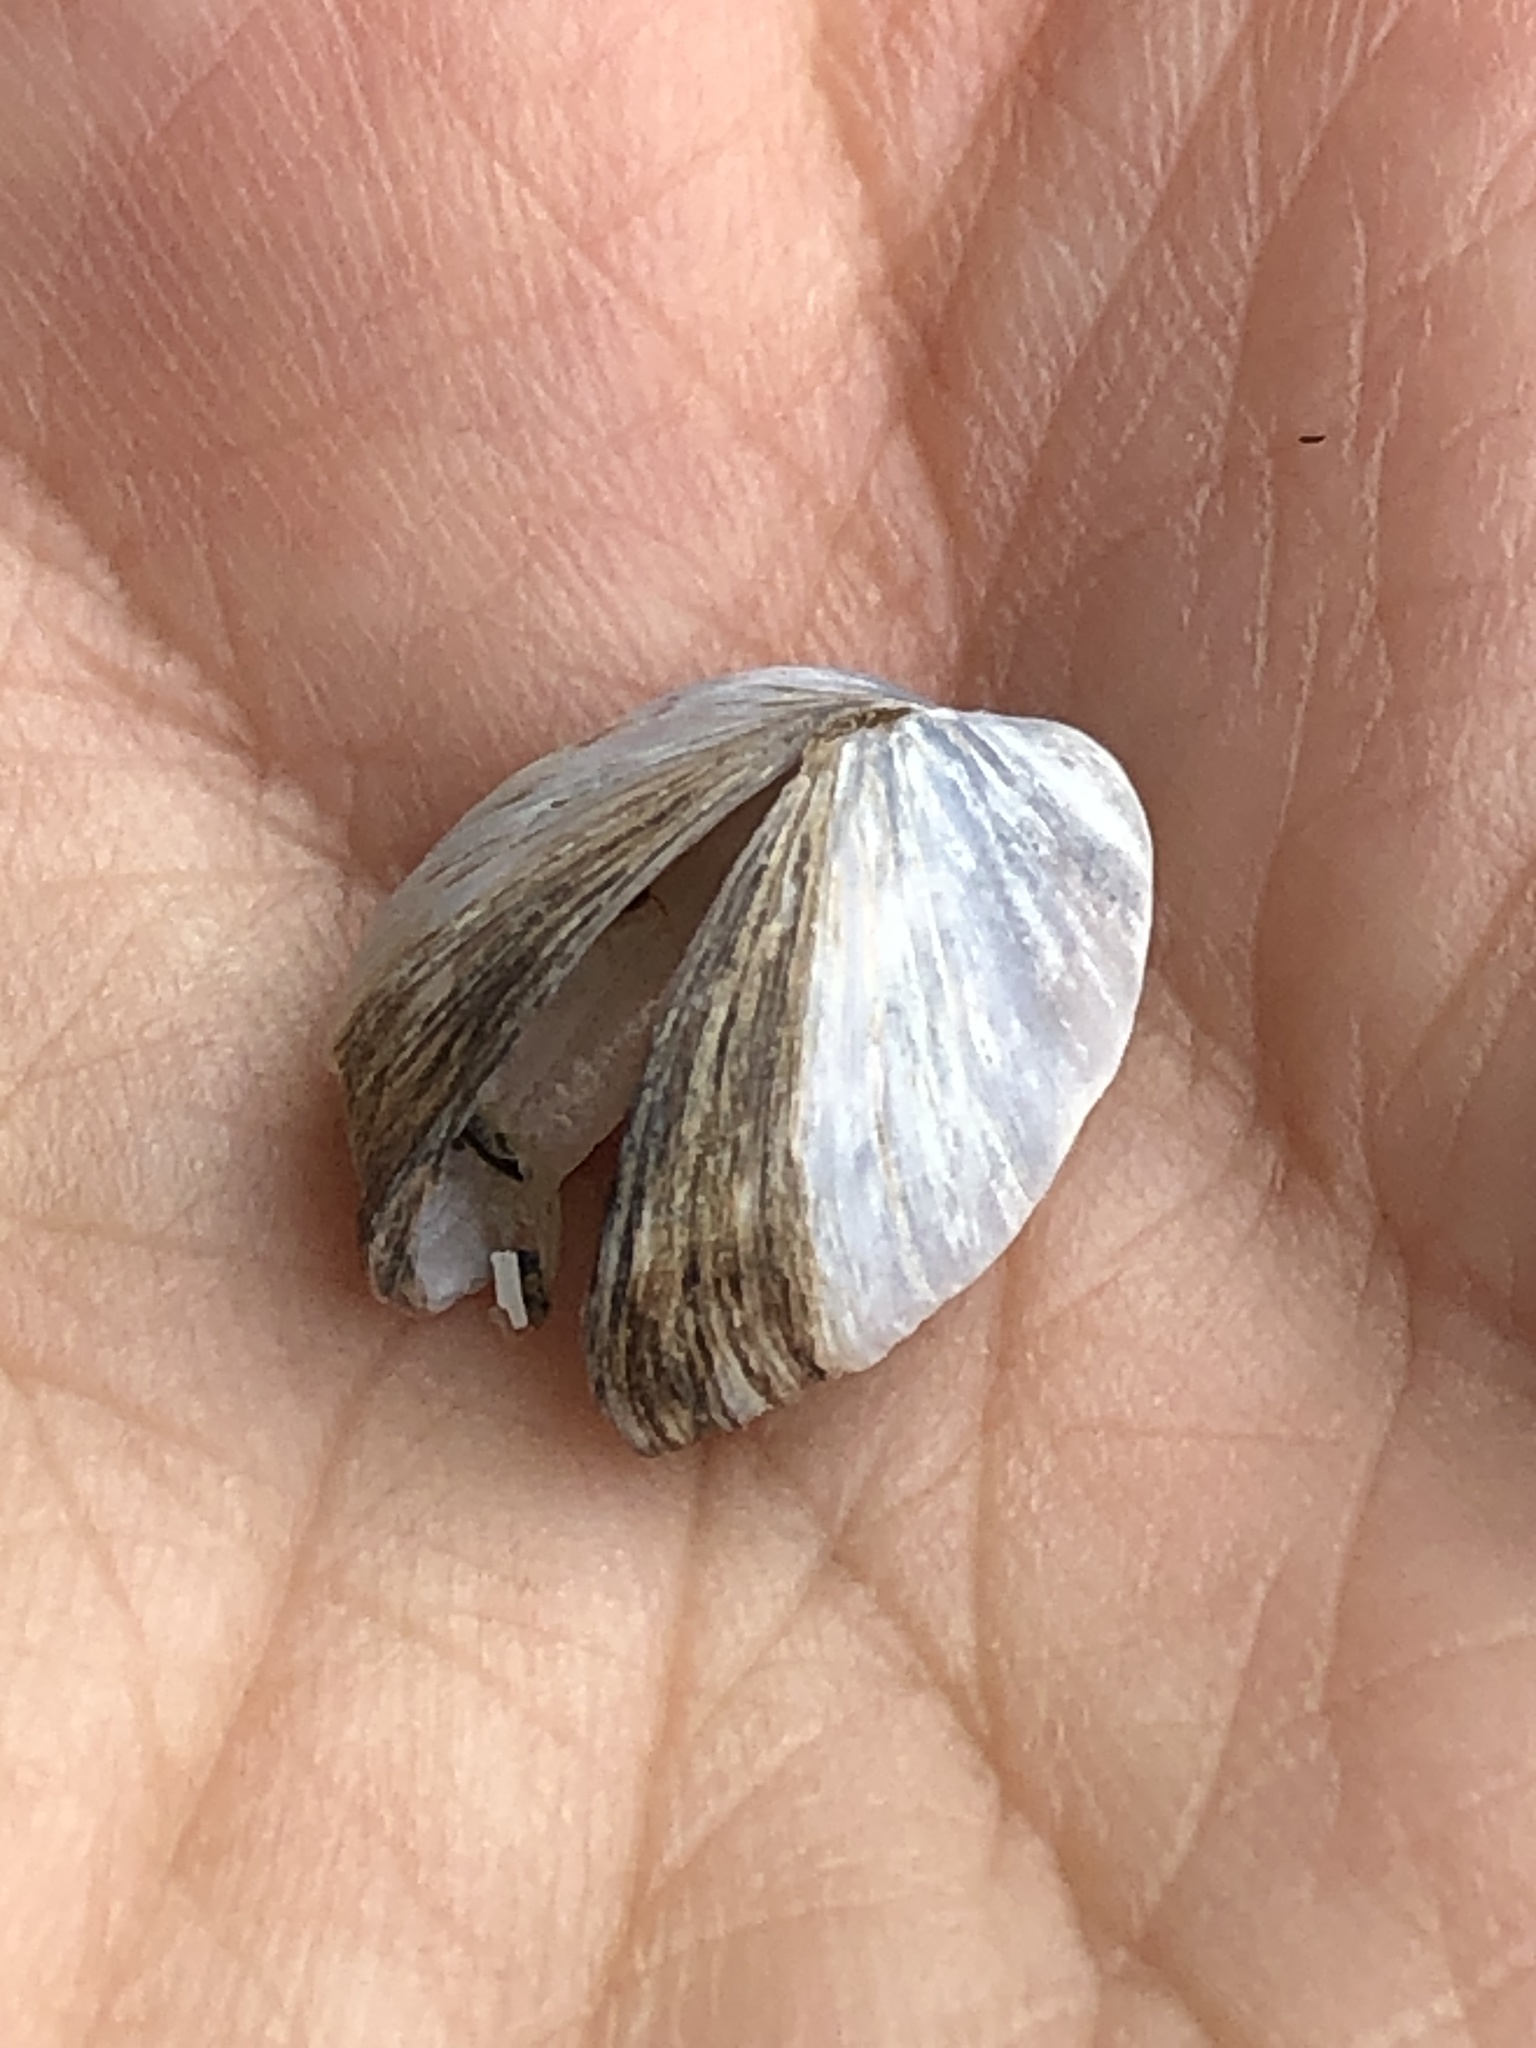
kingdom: Animalia
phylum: Mollusca
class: Bivalvia
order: Myida
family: Dreissenidae
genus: Dreissena
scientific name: Dreissena polymorpha
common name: Zebra mussel
